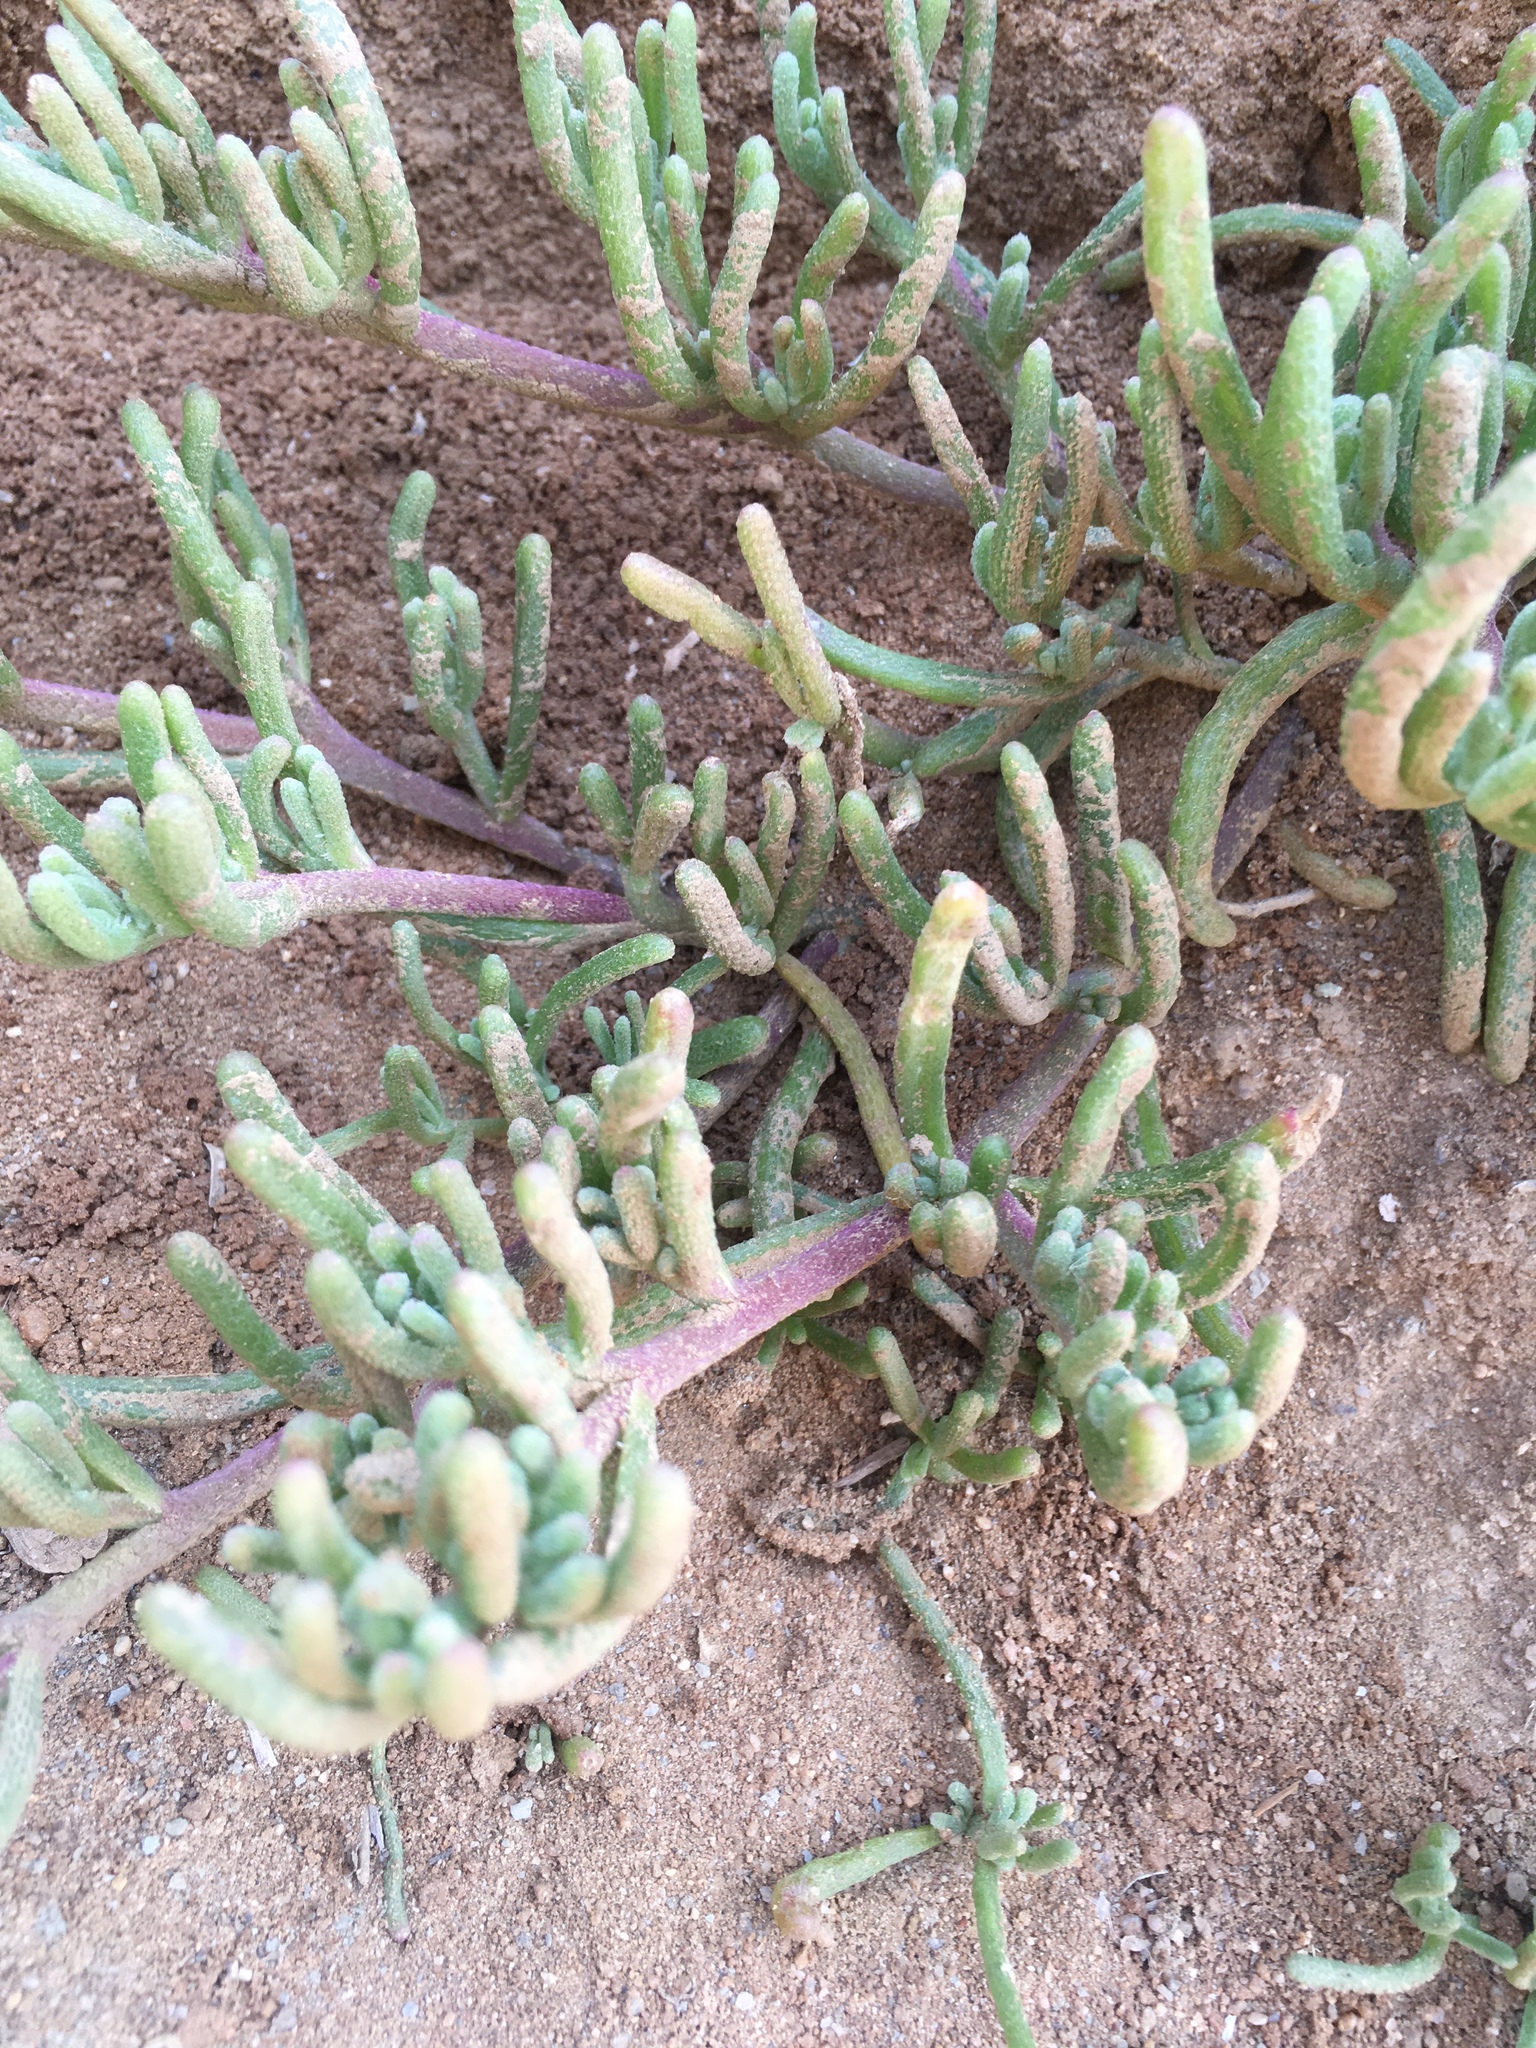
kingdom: Plantae
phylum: Tracheophyta
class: Magnoliopsida
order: Caryophyllales
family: Aizoaceae
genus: Mesembryanthemum
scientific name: Mesembryanthemum nodiflorum
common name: Slenderleaf iceplant
